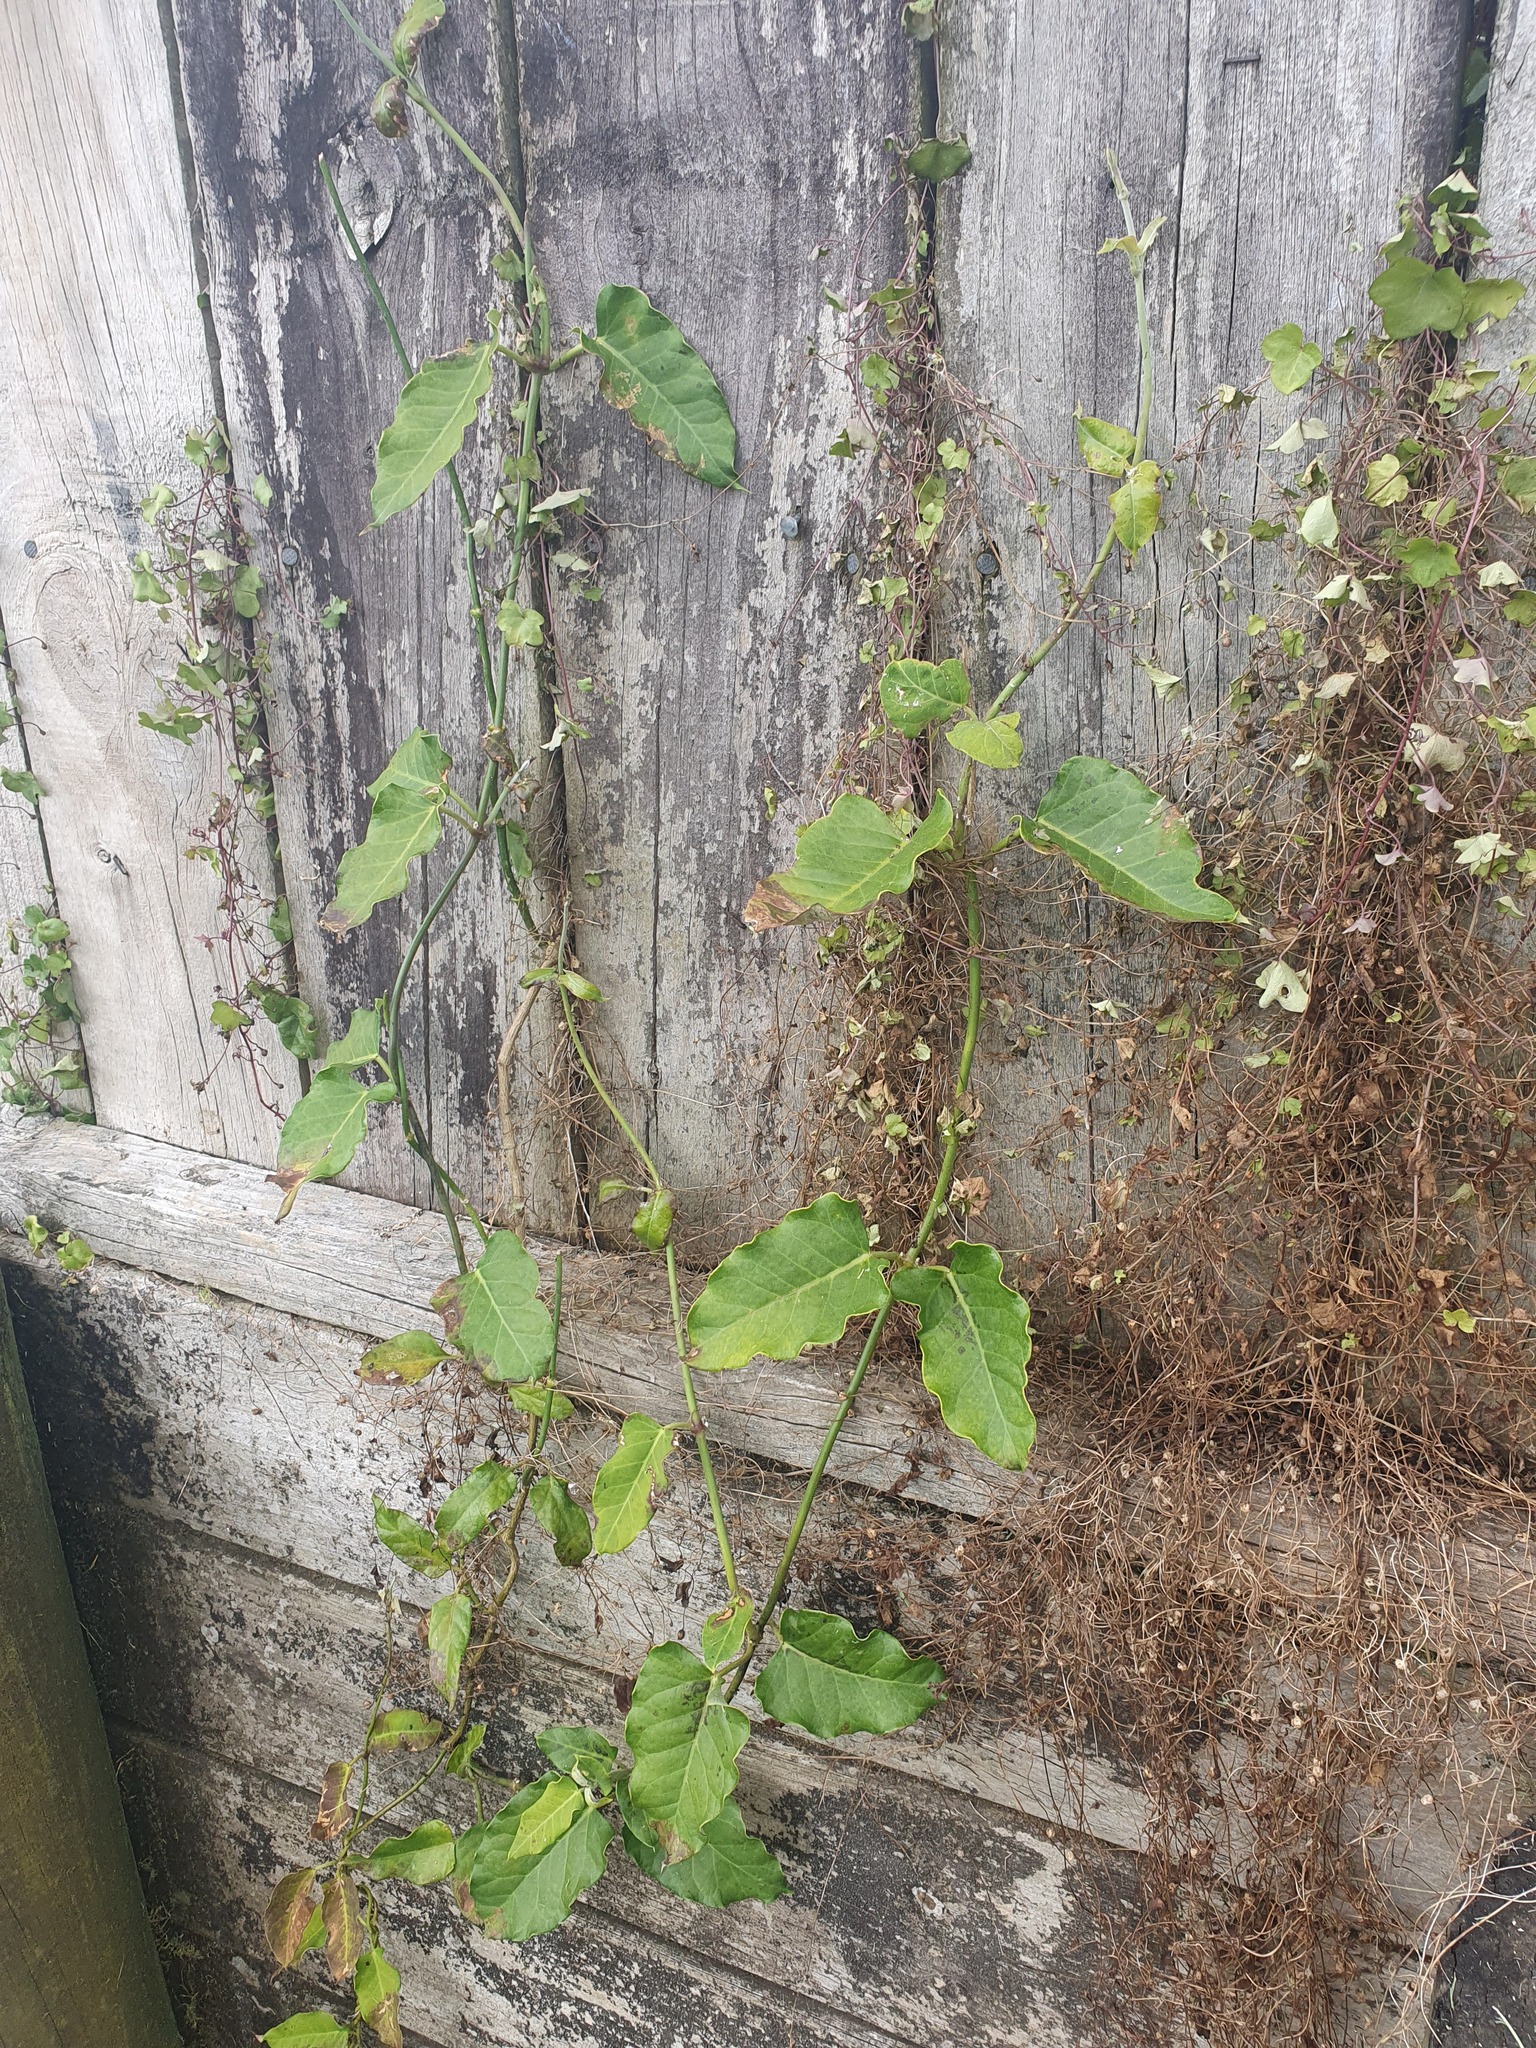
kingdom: Plantae
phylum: Tracheophyta
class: Magnoliopsida
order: Gentianales
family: Apocynaceae
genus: Araujia
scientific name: Araujia sericifera
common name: White bladderflower
